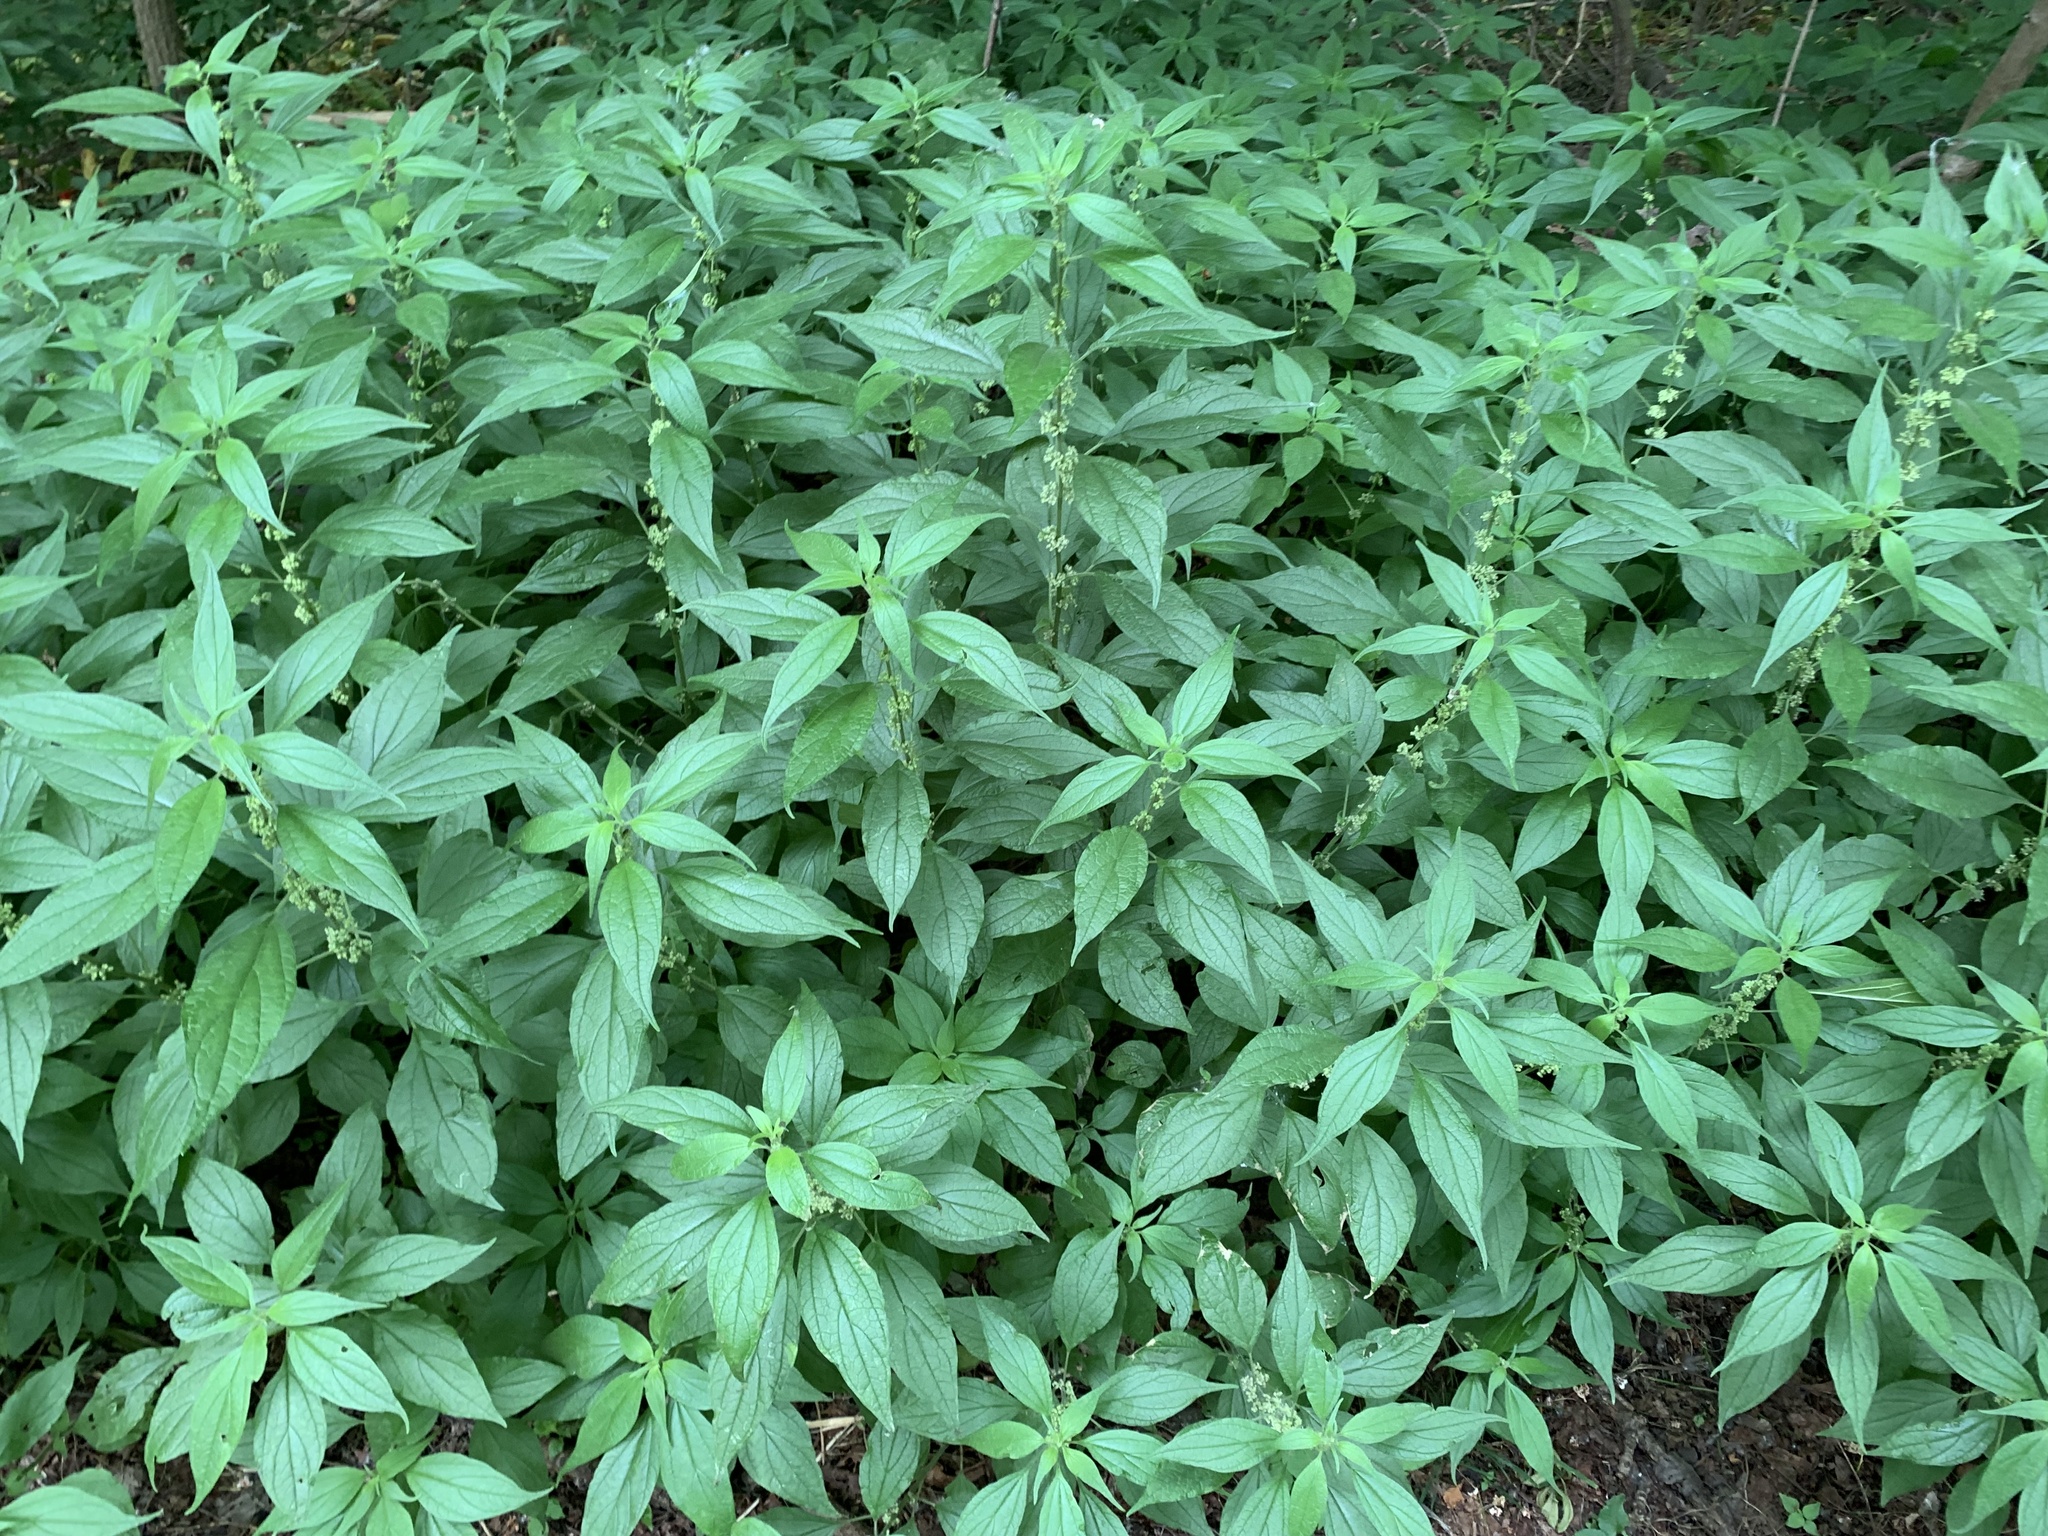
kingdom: Plantae
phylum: Tracheophyta
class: Magnoliopsida
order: Rosales
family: Urticaceae
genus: Parietaria
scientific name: Parietaria officinalis
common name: Eastern pellitory-of-the-wall
